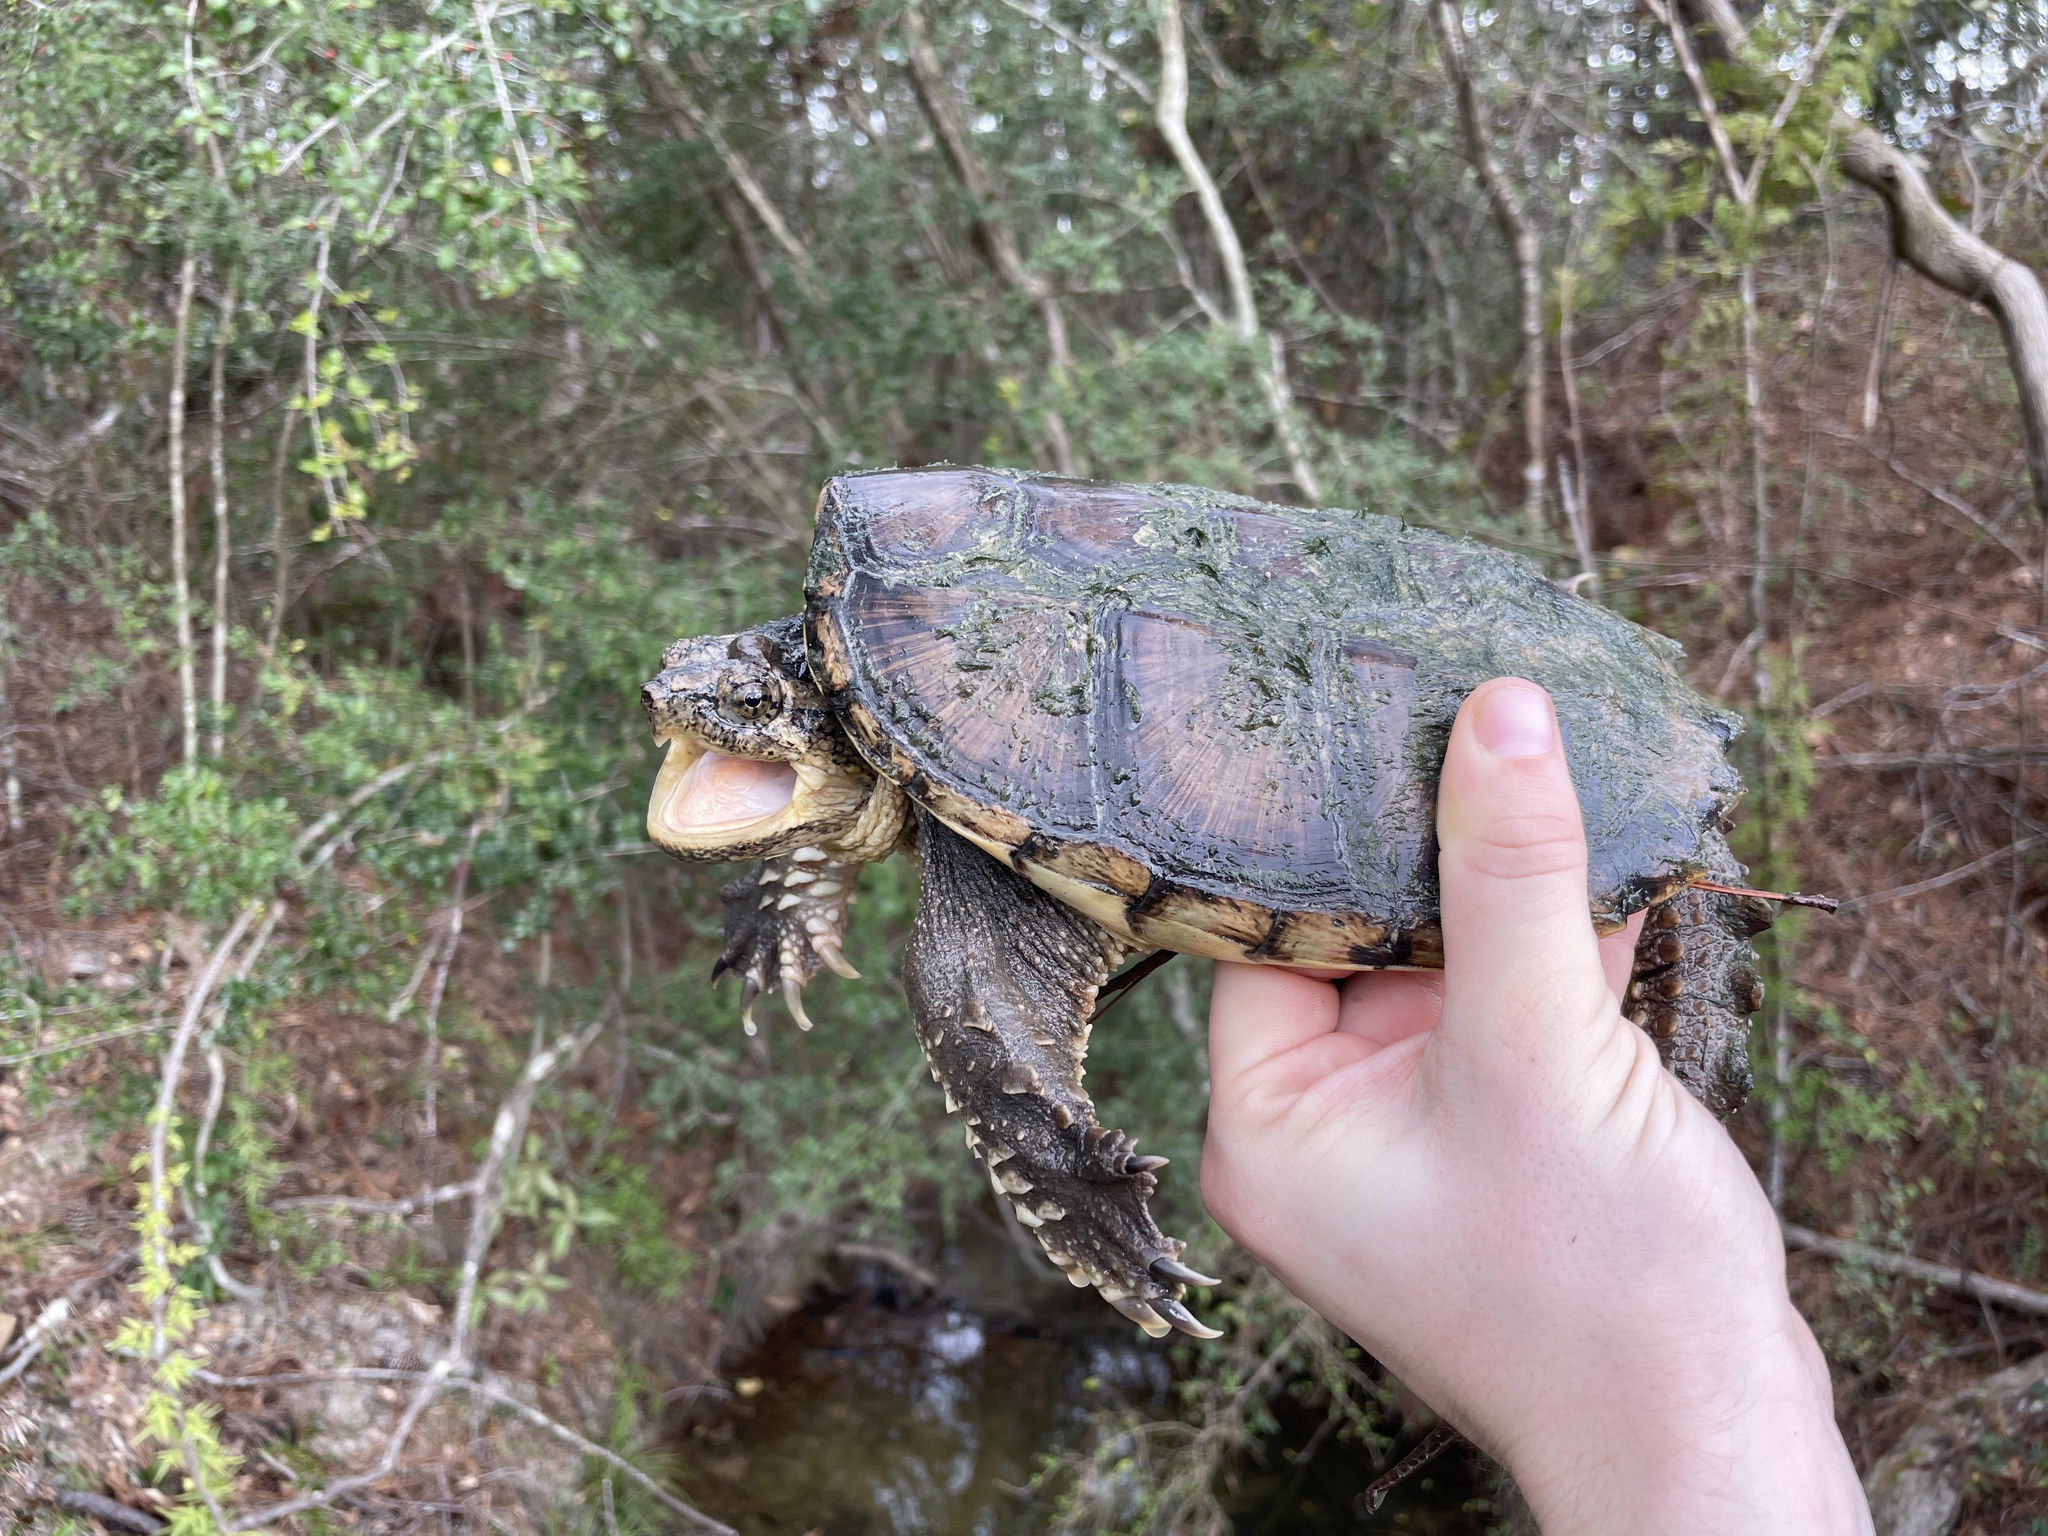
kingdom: Animalia
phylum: Chordata
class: Testudines
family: Chelydridae
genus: Chelydra
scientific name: Chelydra serpentina
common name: Common snapping turtle
